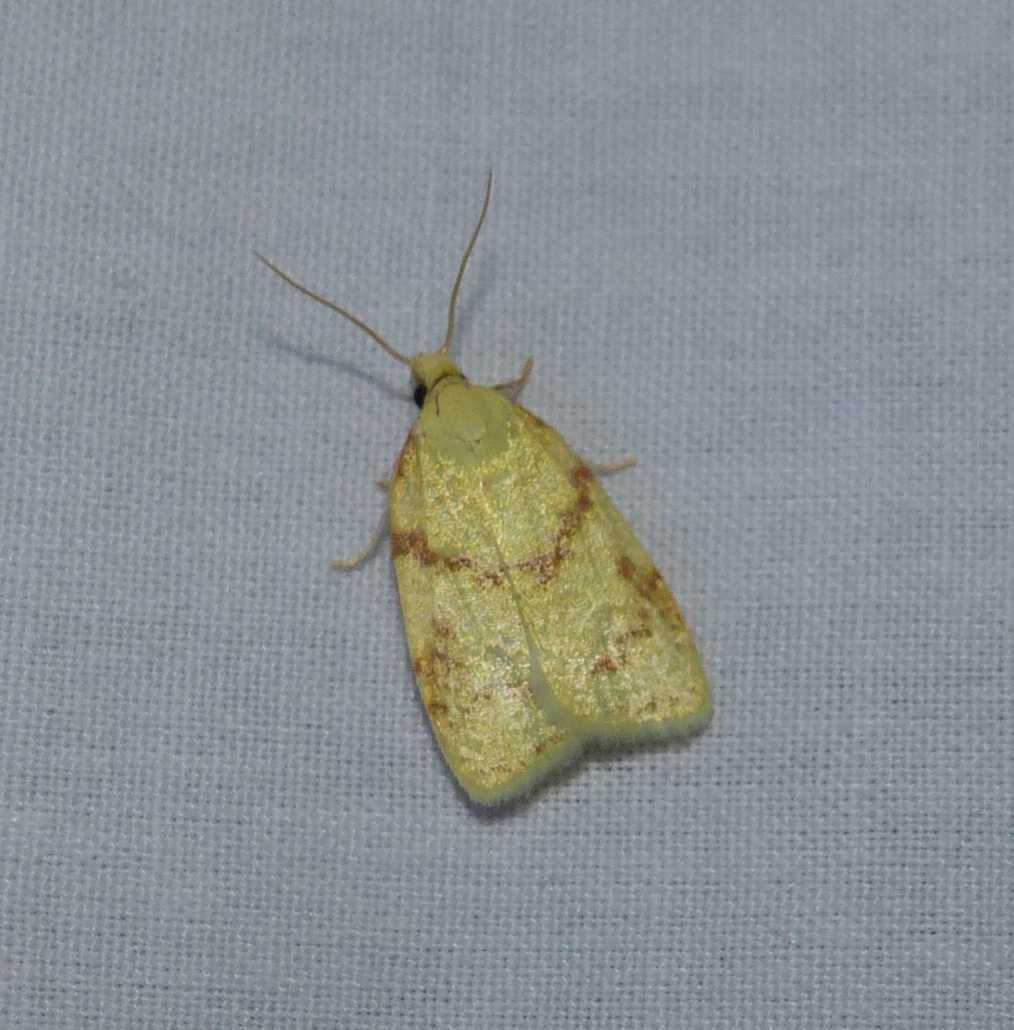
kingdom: Animalia
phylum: Arthropoda
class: Insecta
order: Lepidoptera
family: Tortricidae
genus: Cenopis
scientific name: Cenopis pettitana
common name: Maple-basswood leafroller moth
